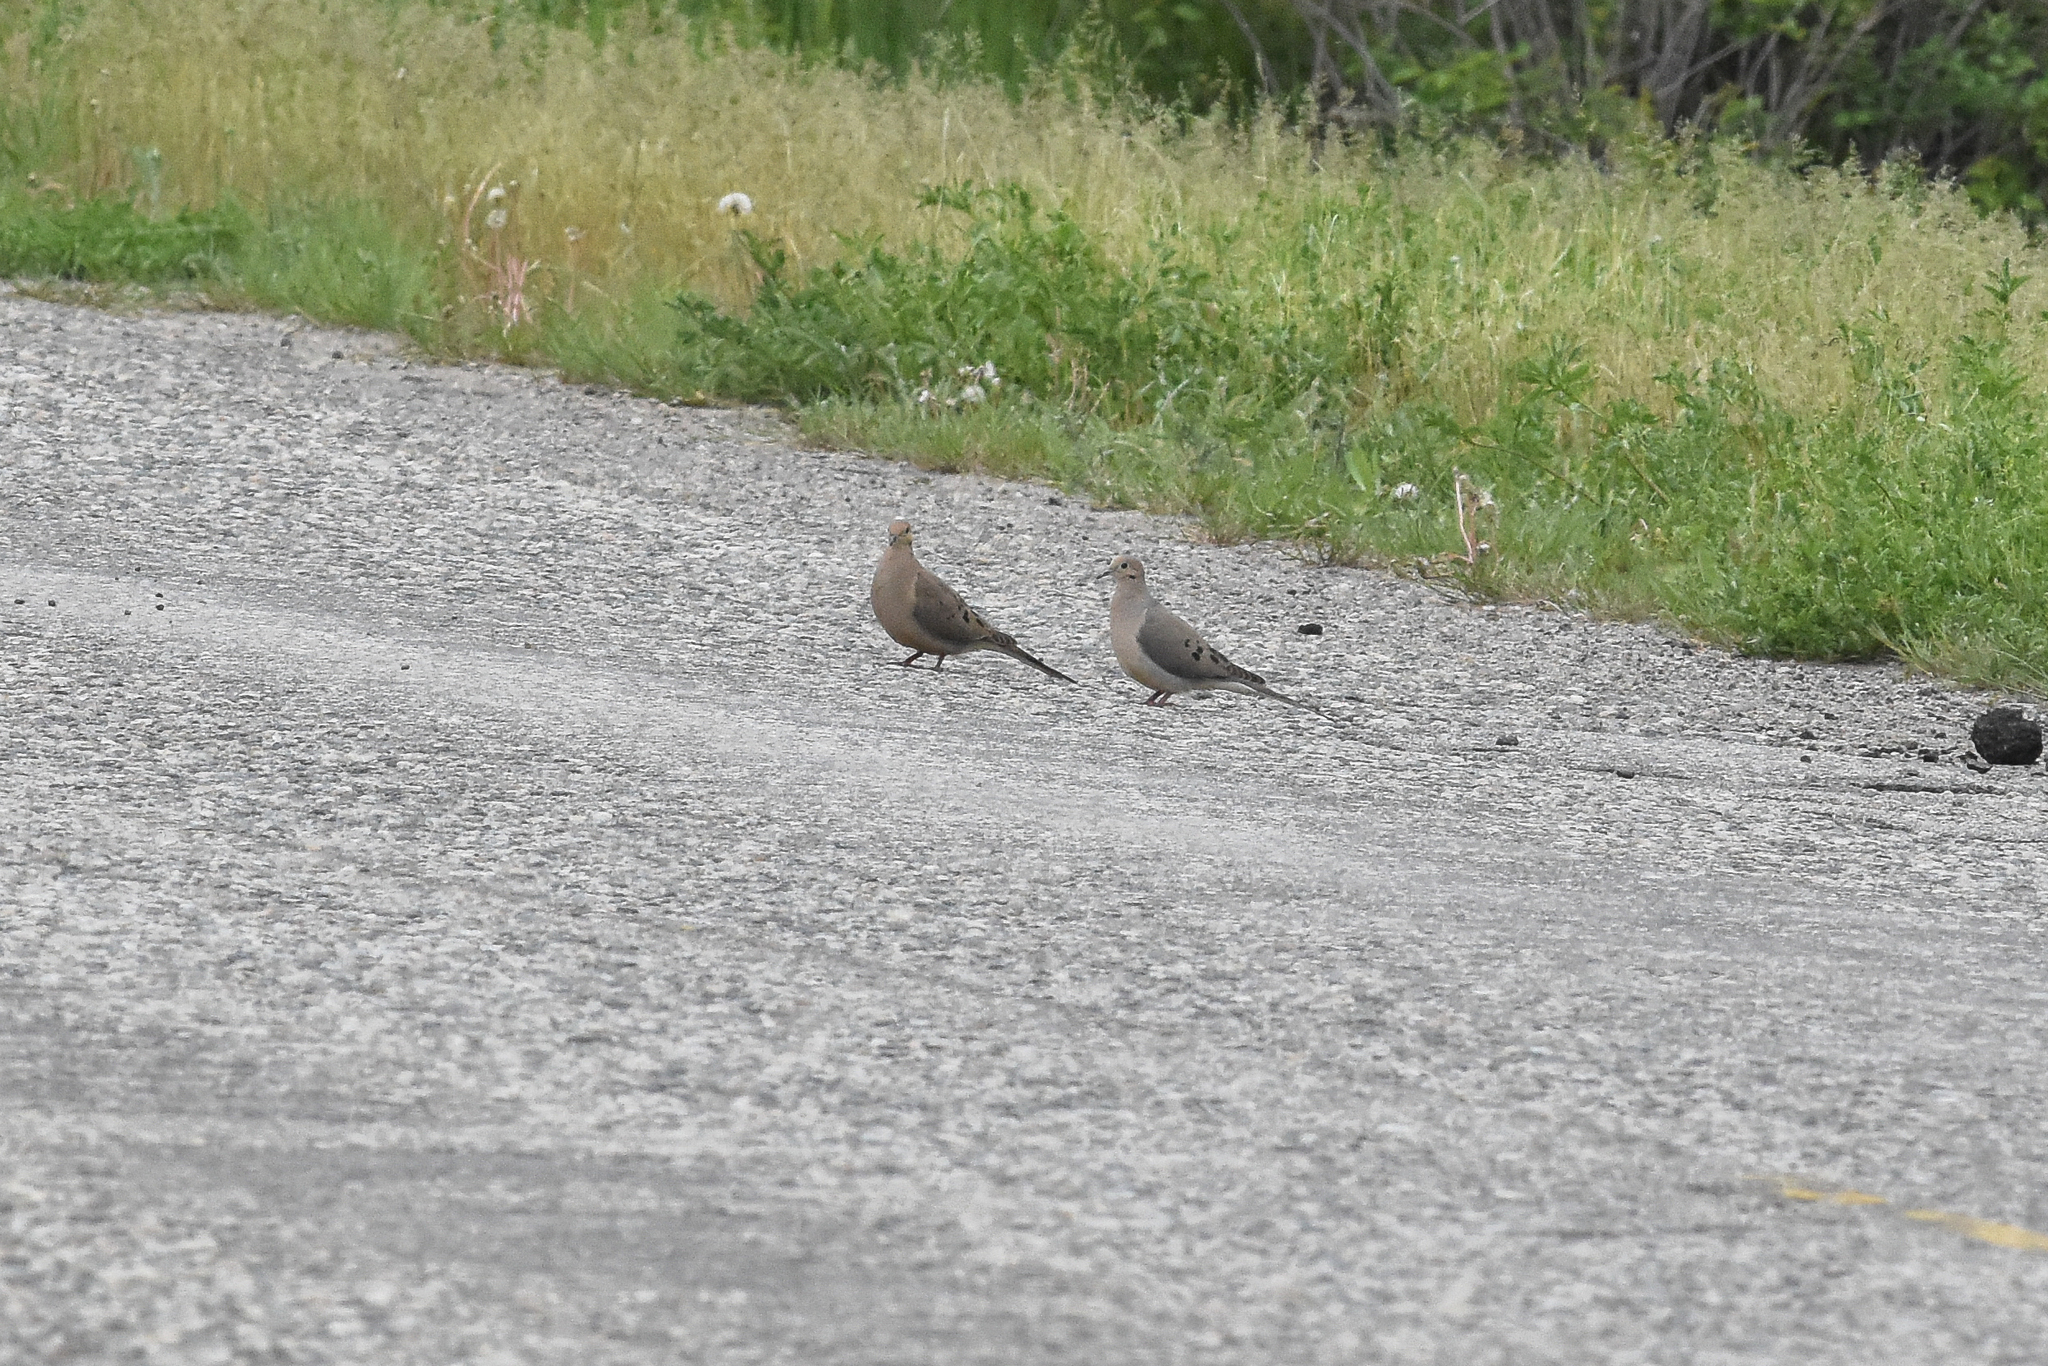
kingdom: Animalia
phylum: Chordata
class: Aves
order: Columbiformes
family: Columbidae
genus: Zenaida
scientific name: Zenaida macroura
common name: Mourning dove
